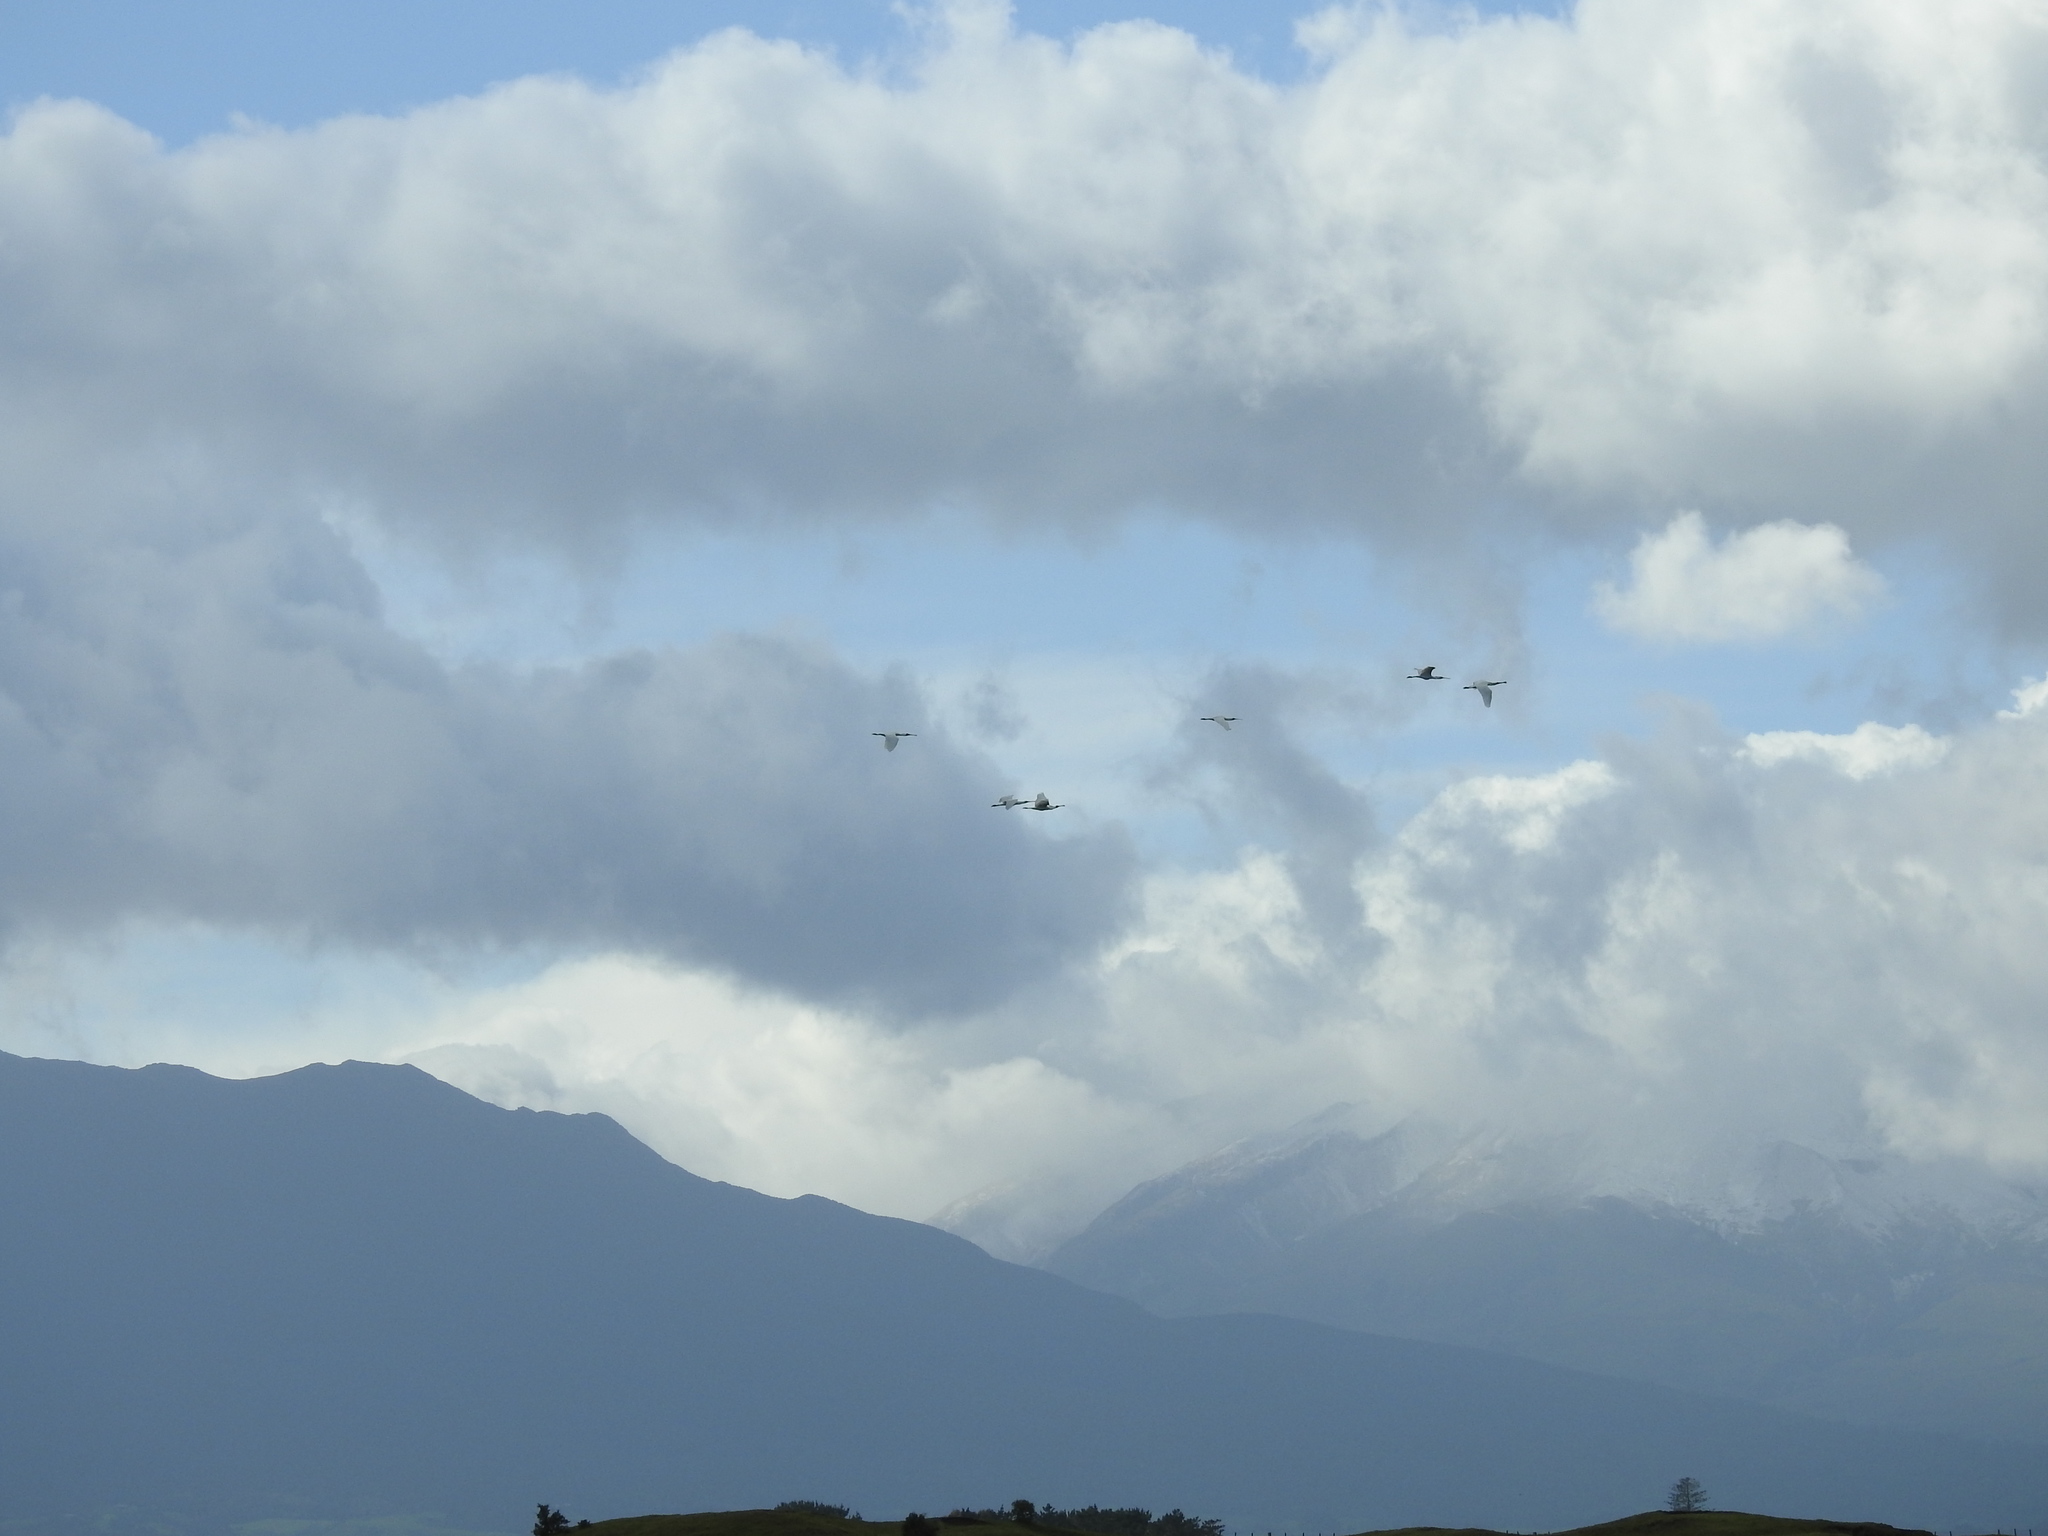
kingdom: Animalia
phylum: Chordata
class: Aves
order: Pelecaniformes
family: Threskiornithidae
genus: Platalea
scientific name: Platalea regia
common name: Royal spoonbill
